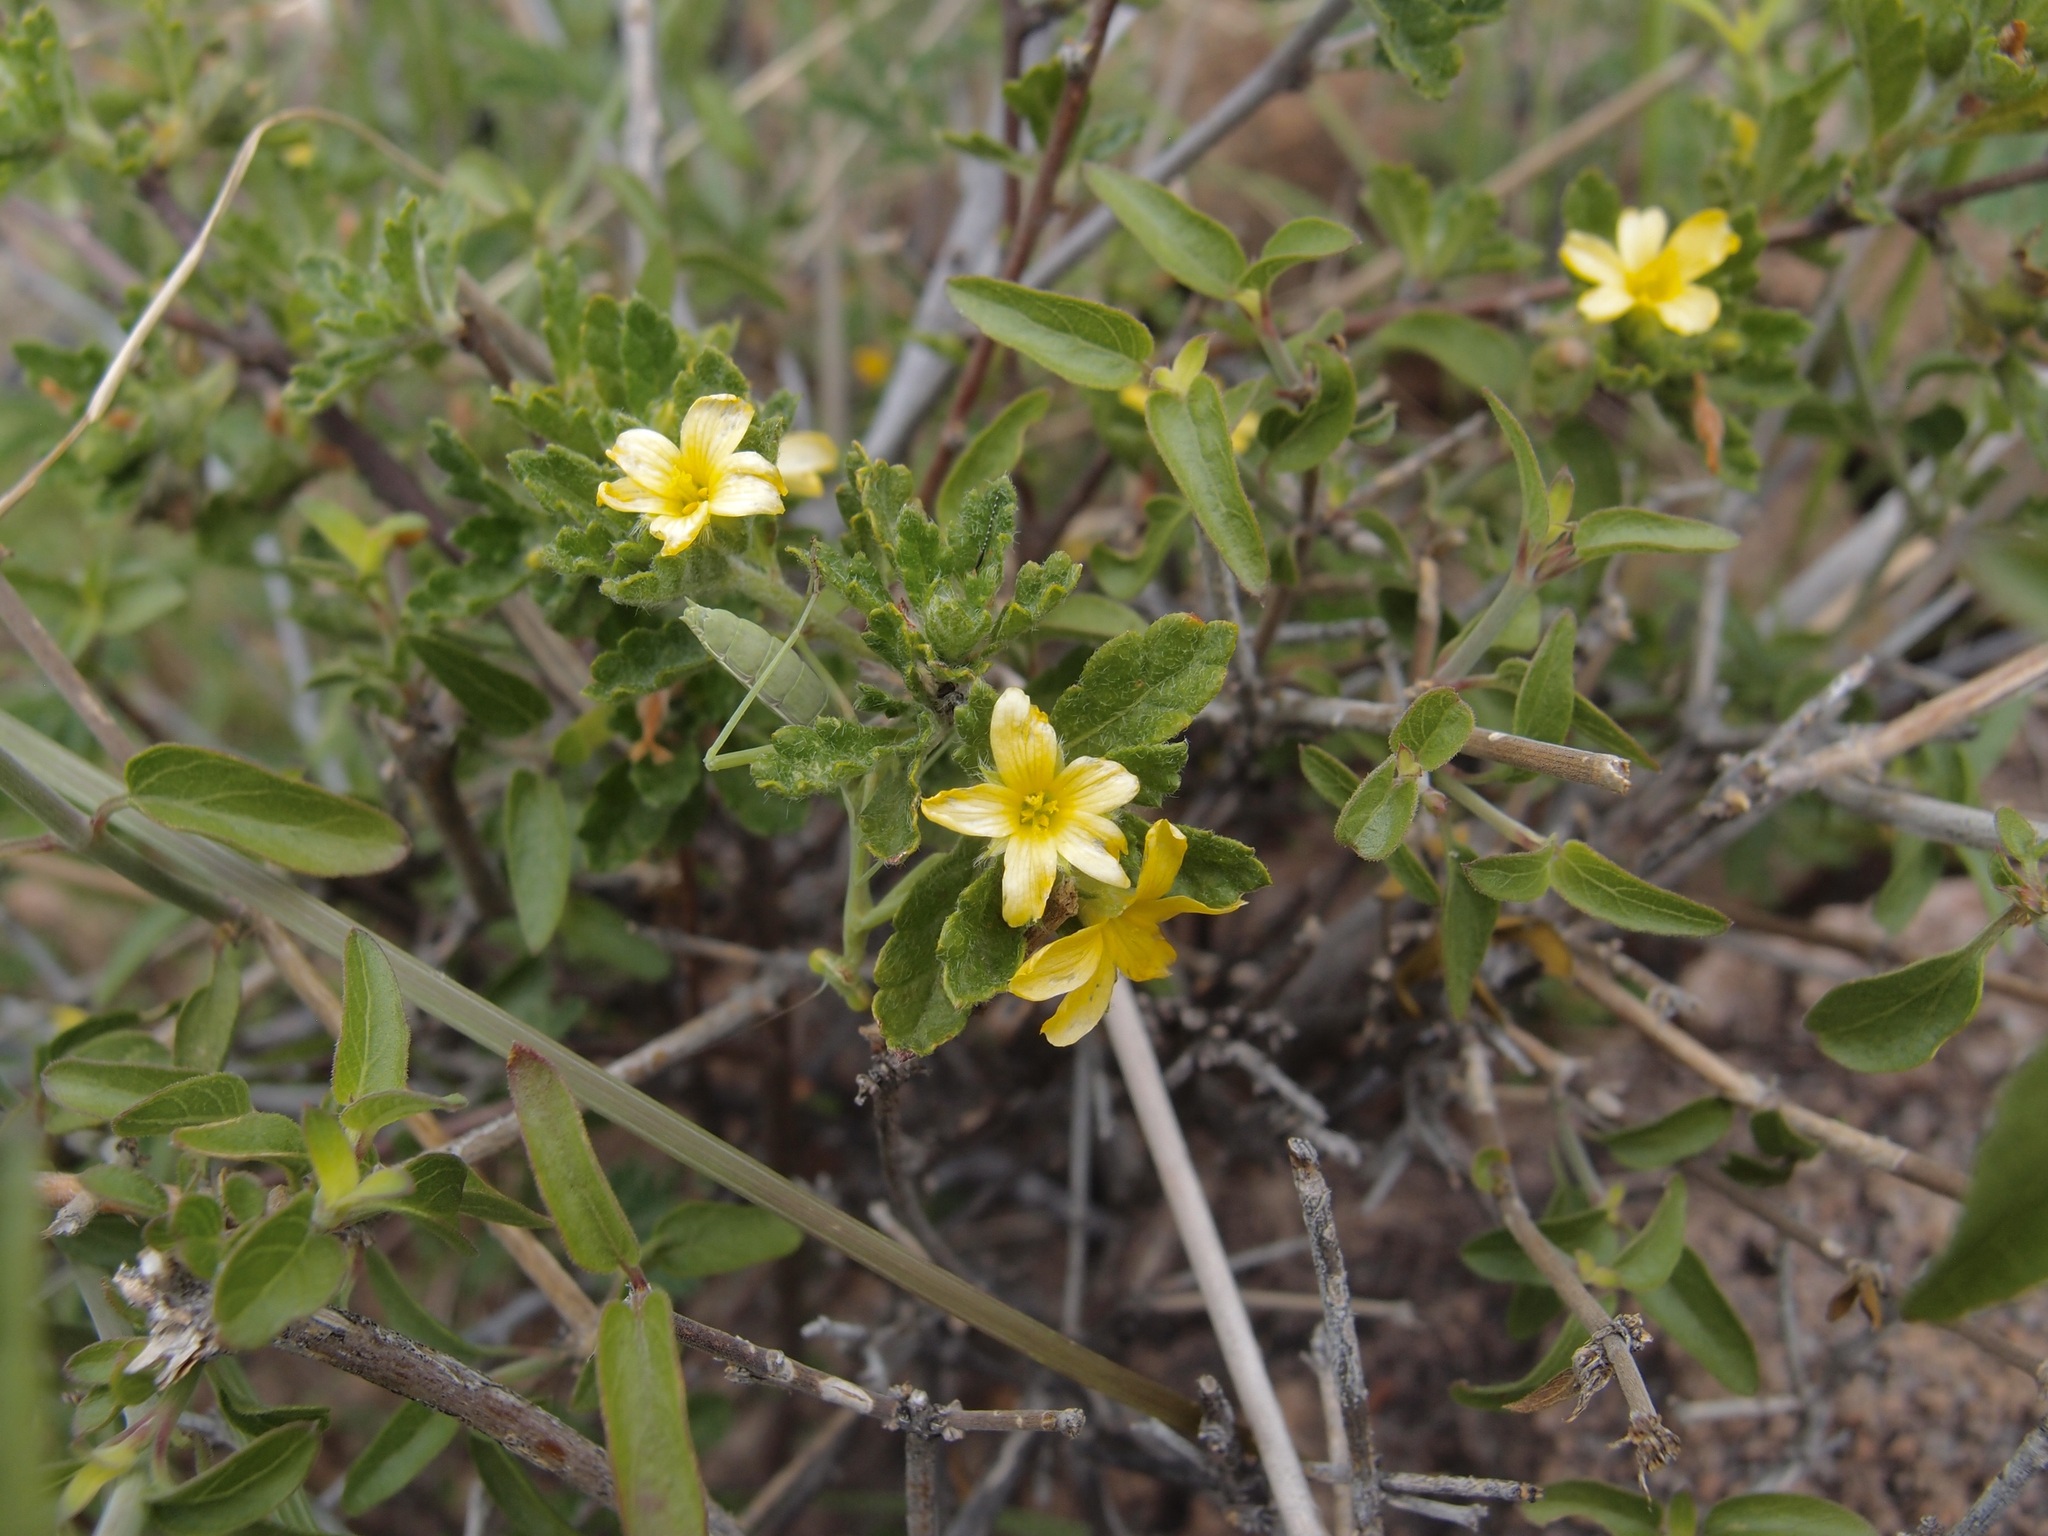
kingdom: Plantae
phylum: Tracheophyta
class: Magnoliopsida
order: Malpighiales
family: Turneraceae
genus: Turnera
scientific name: Turnera diffusa
